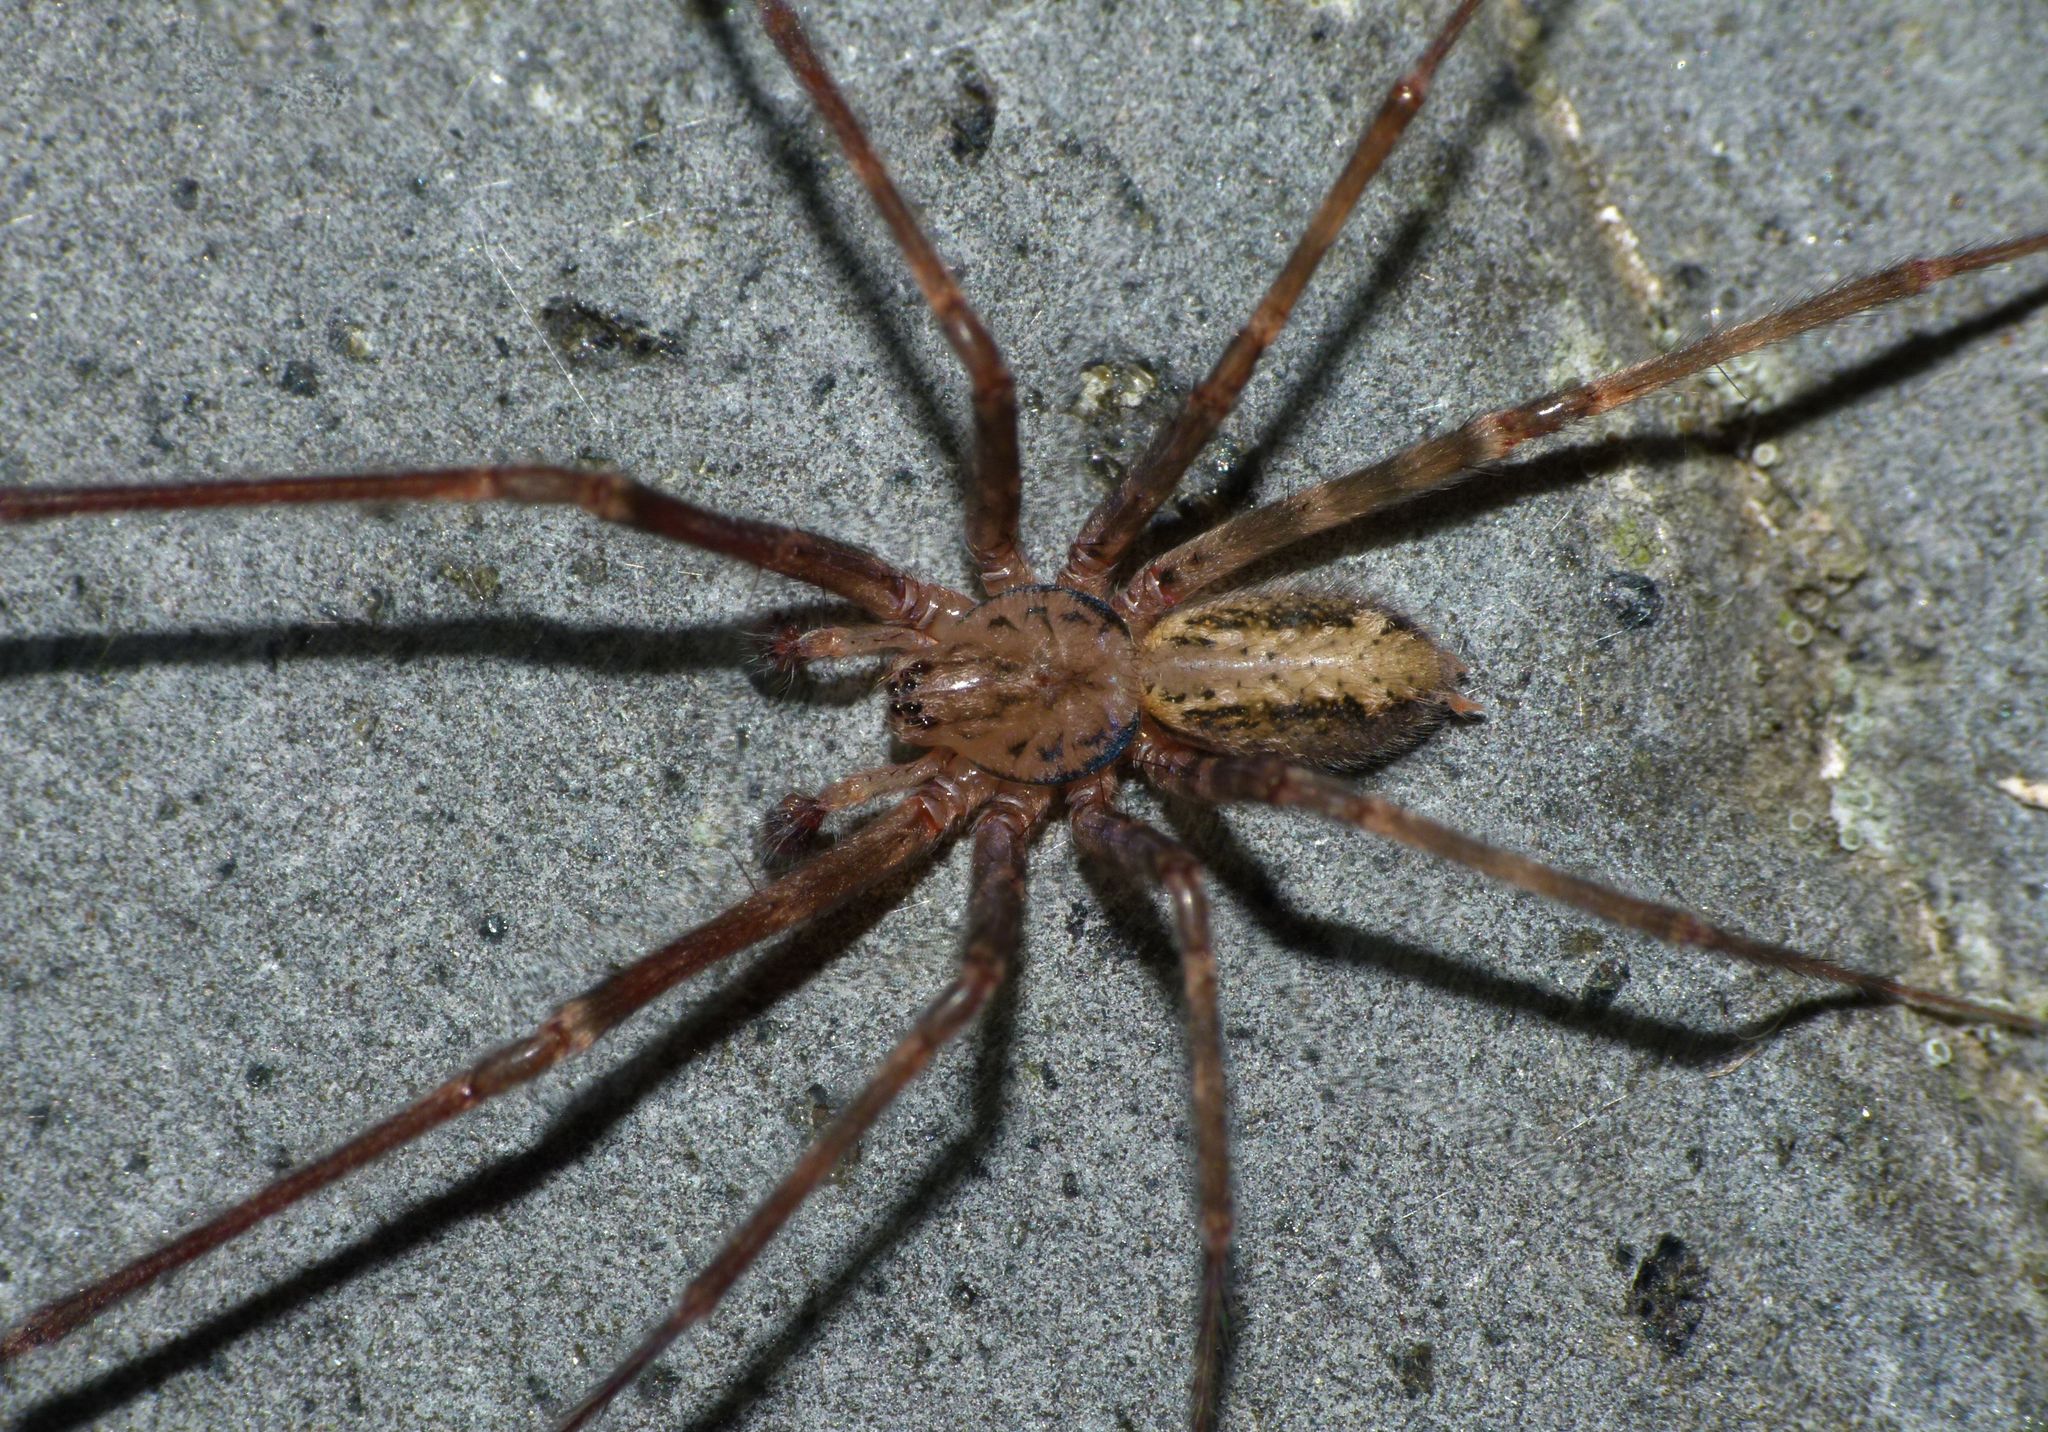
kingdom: Animalia
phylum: Arthropoda
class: Arachnida
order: Araneae
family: Stiphidiidae
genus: Stiphidion
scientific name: Stiphidion facetum
